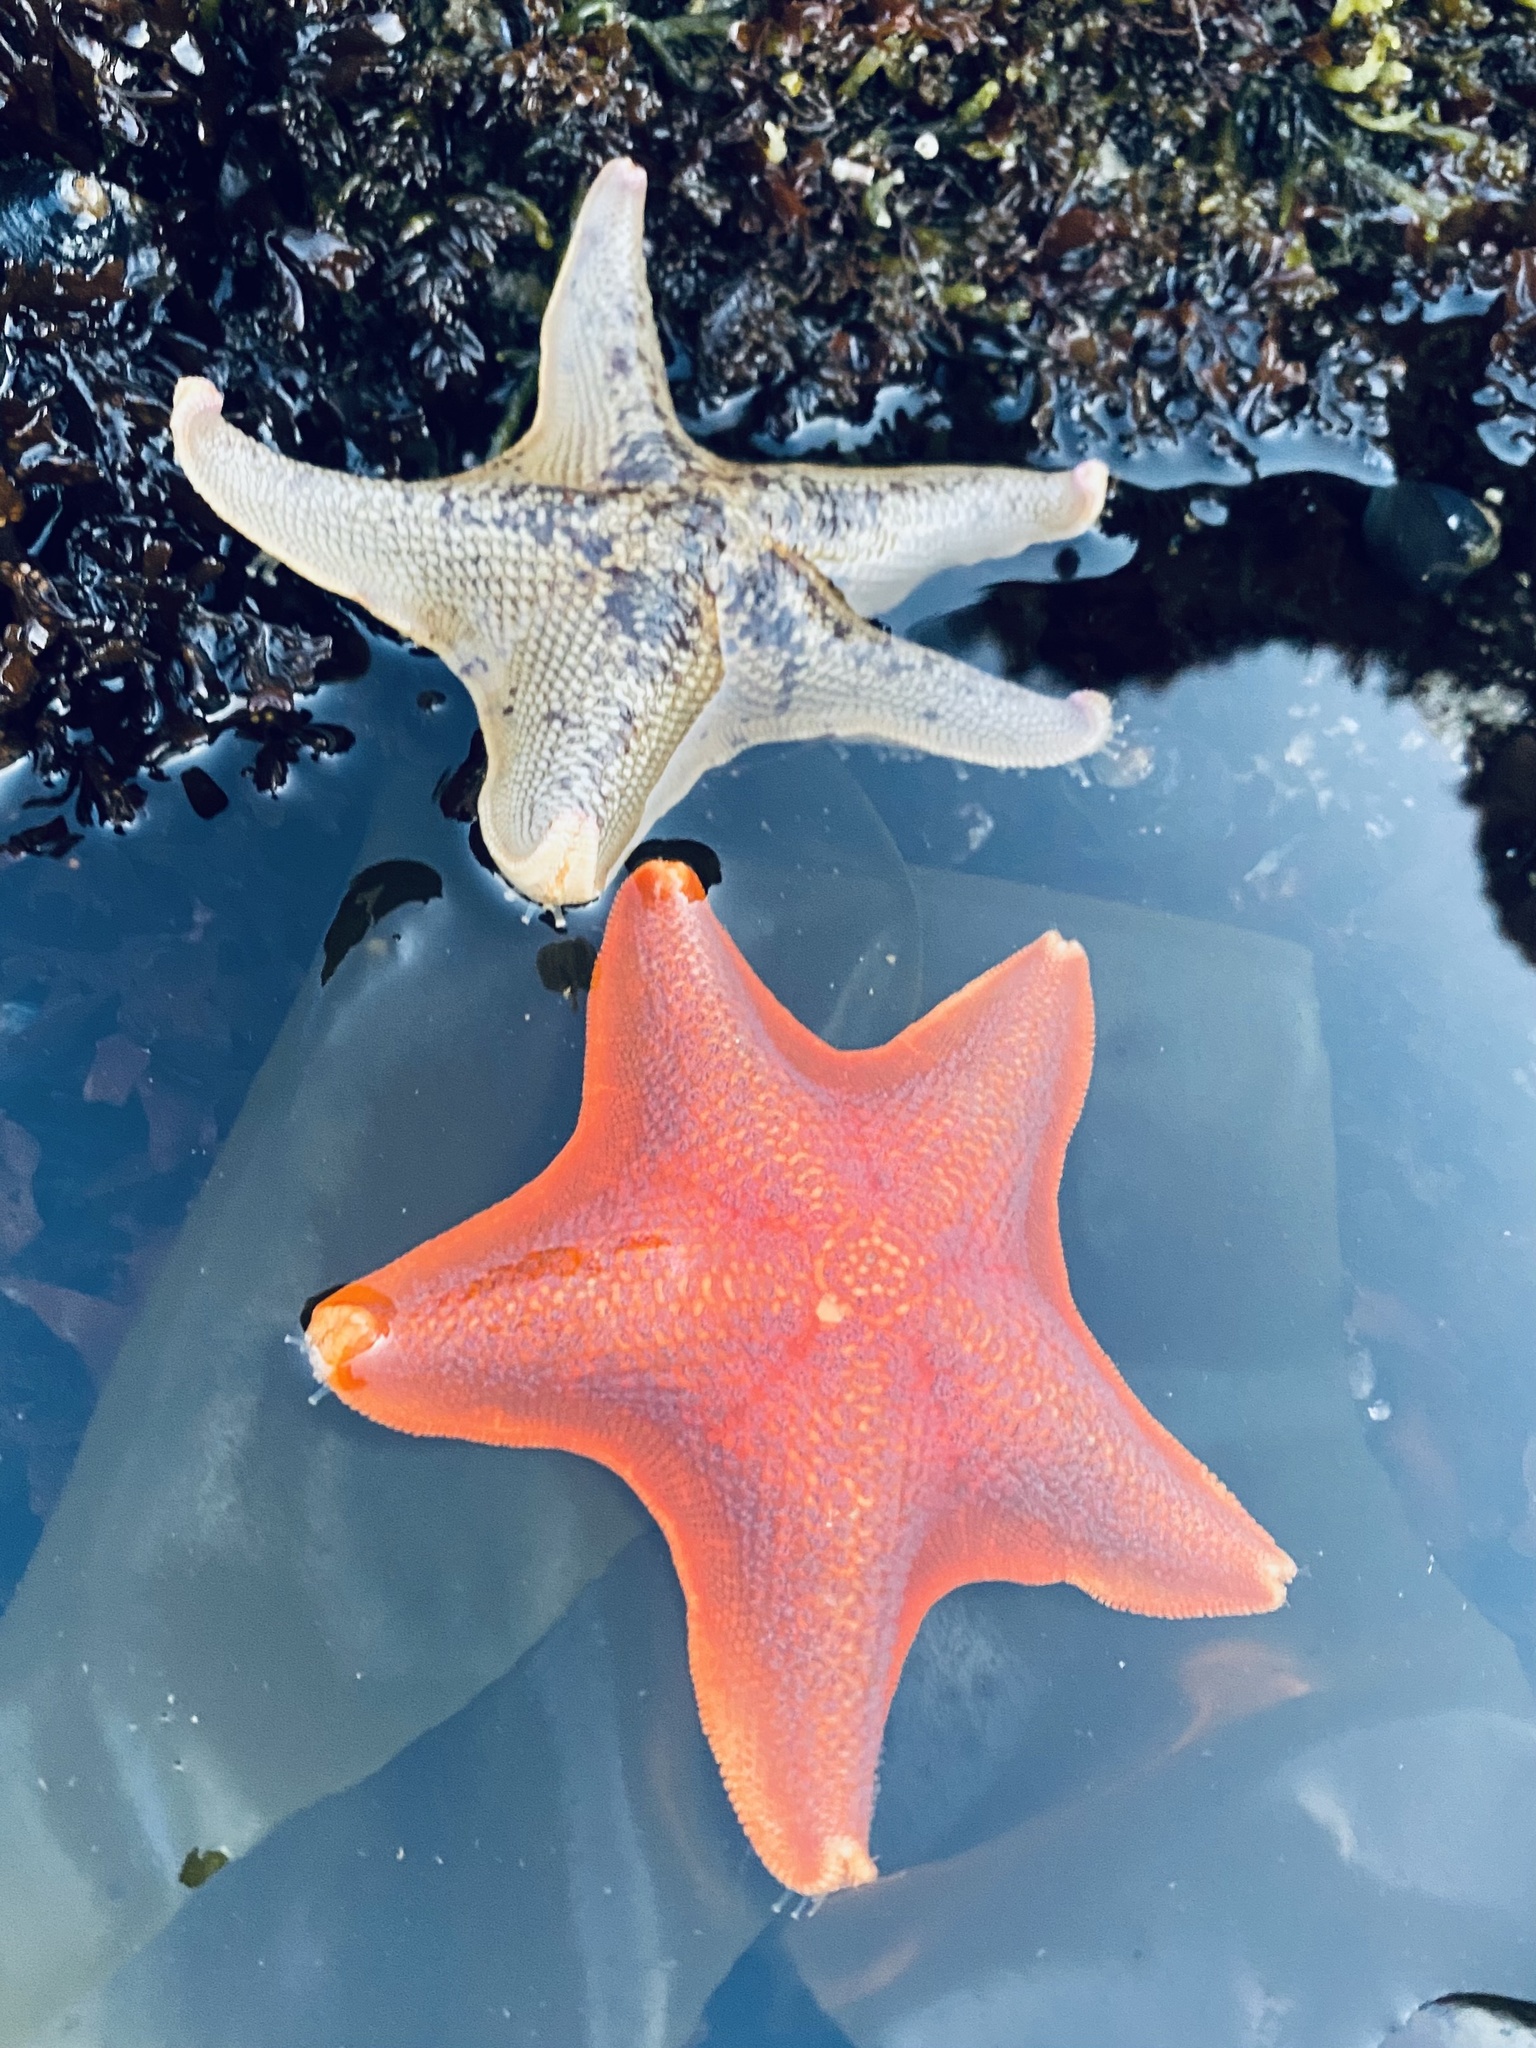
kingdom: Animalia
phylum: Echinodermata
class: Asteroidea
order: Valvatida
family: Asterinidae
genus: Patiria
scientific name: Patiria miniata
